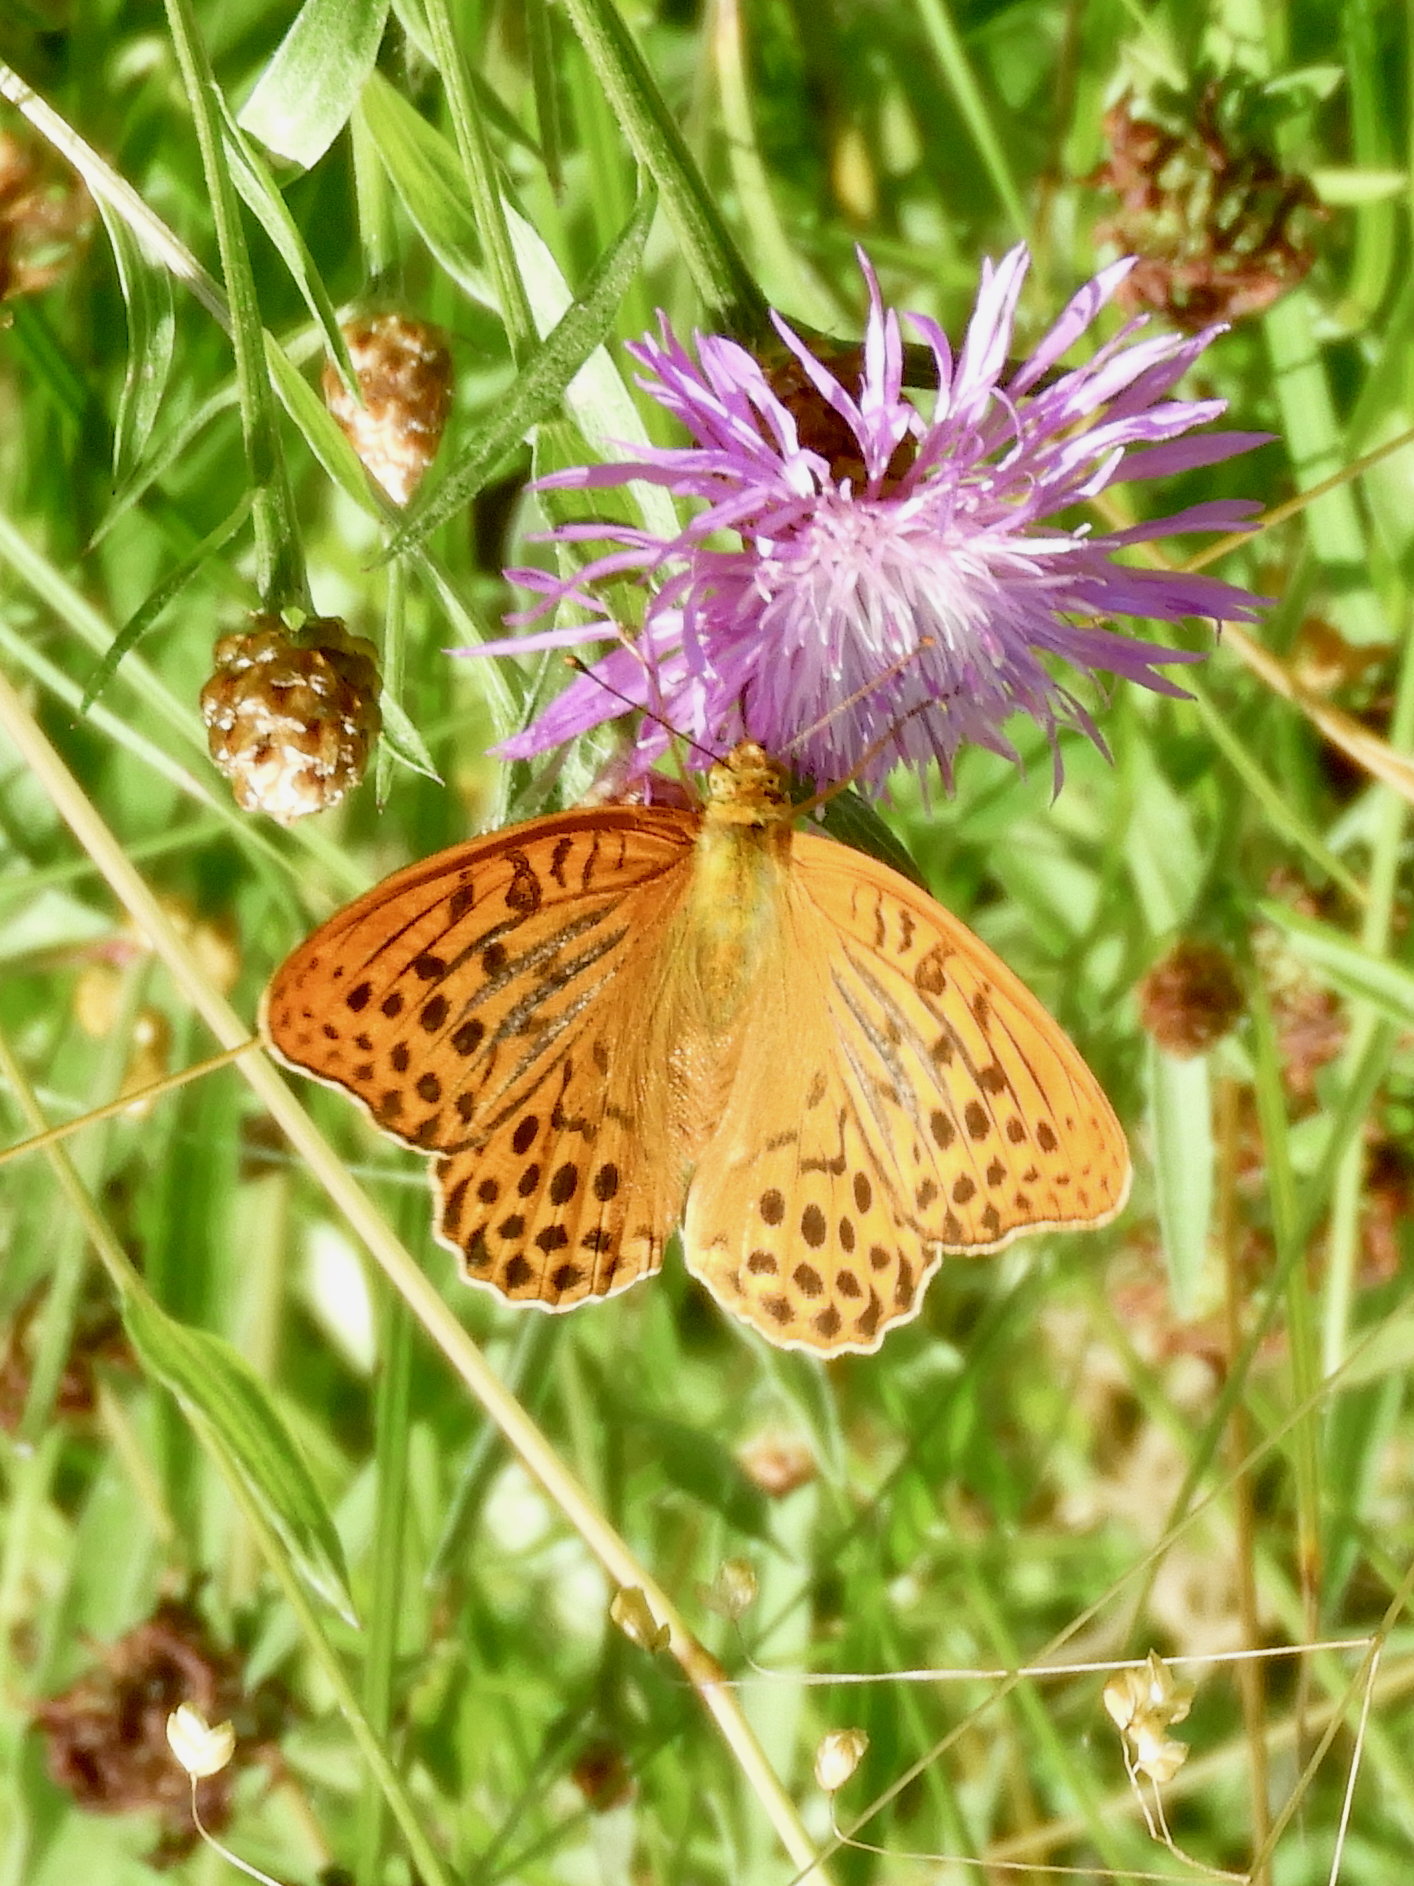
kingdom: Animalia
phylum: Arthropoda
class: Insecta
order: Lepidoptera
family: Nymphalidae
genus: Argynnis
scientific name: Argynnis paphia
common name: Silver-washed fritillary
